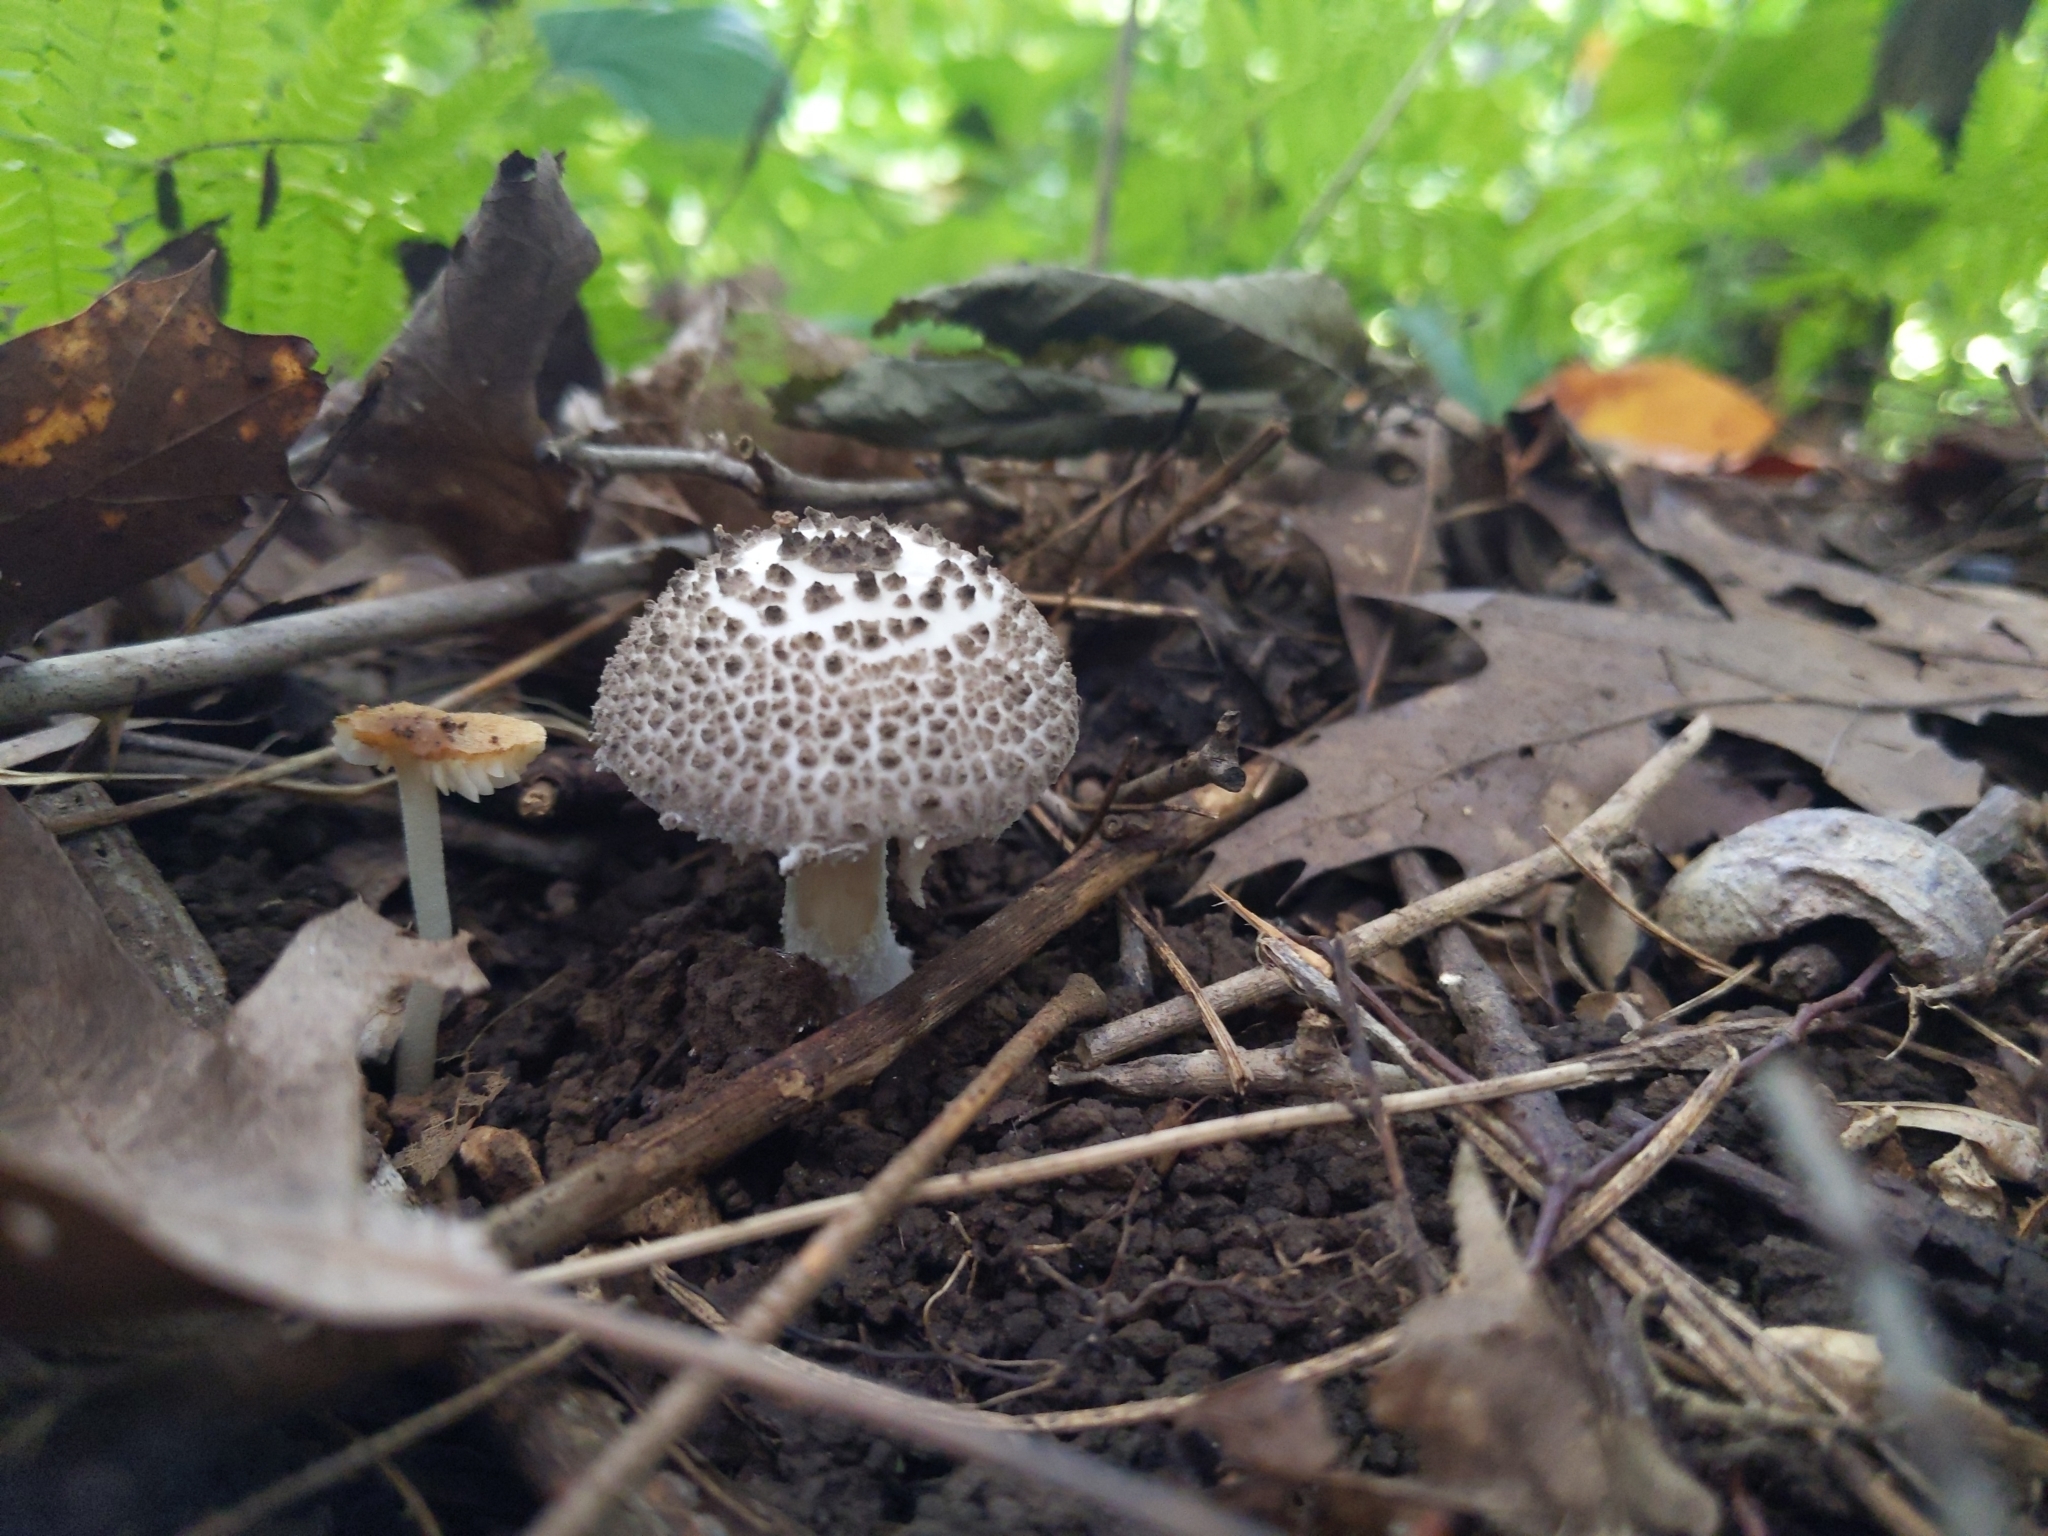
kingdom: Fungi
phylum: Basidiomycota
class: Agaricomycetes
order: Agaricales
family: Amanitaceae
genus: Amanita
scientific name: Amanita onusta
